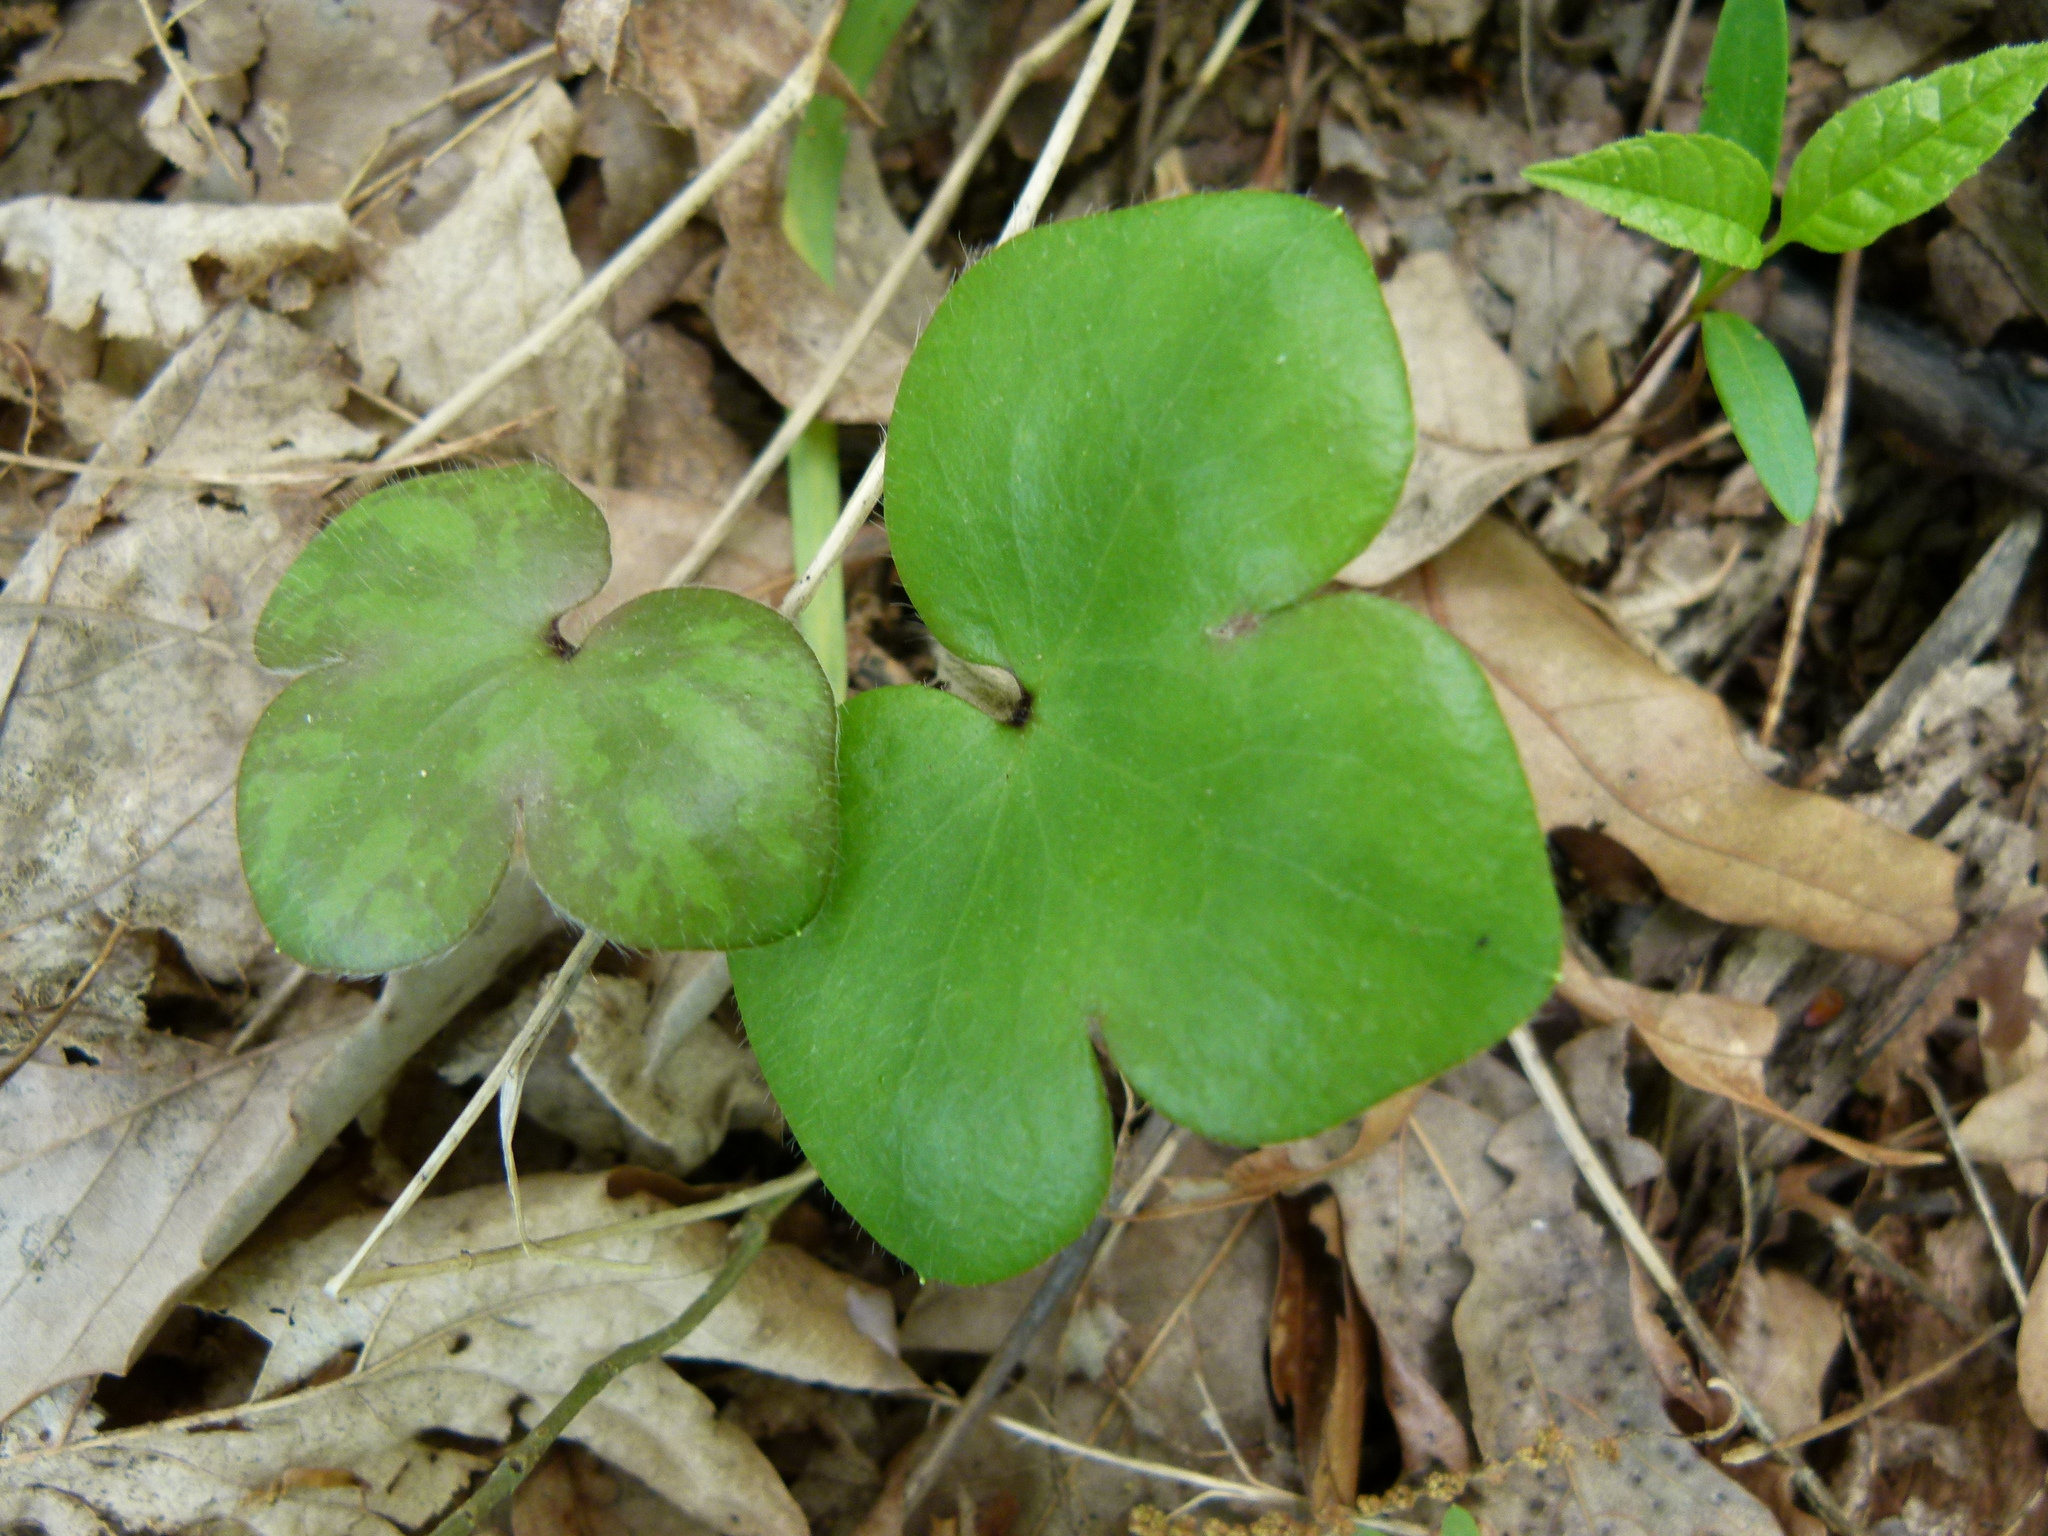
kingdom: Plantae
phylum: Tracheophyta
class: Magnoliopsida
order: Ranunculales
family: Ranunculaceae
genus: Hepatica
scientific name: Hepatica americana
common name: American hepatica
